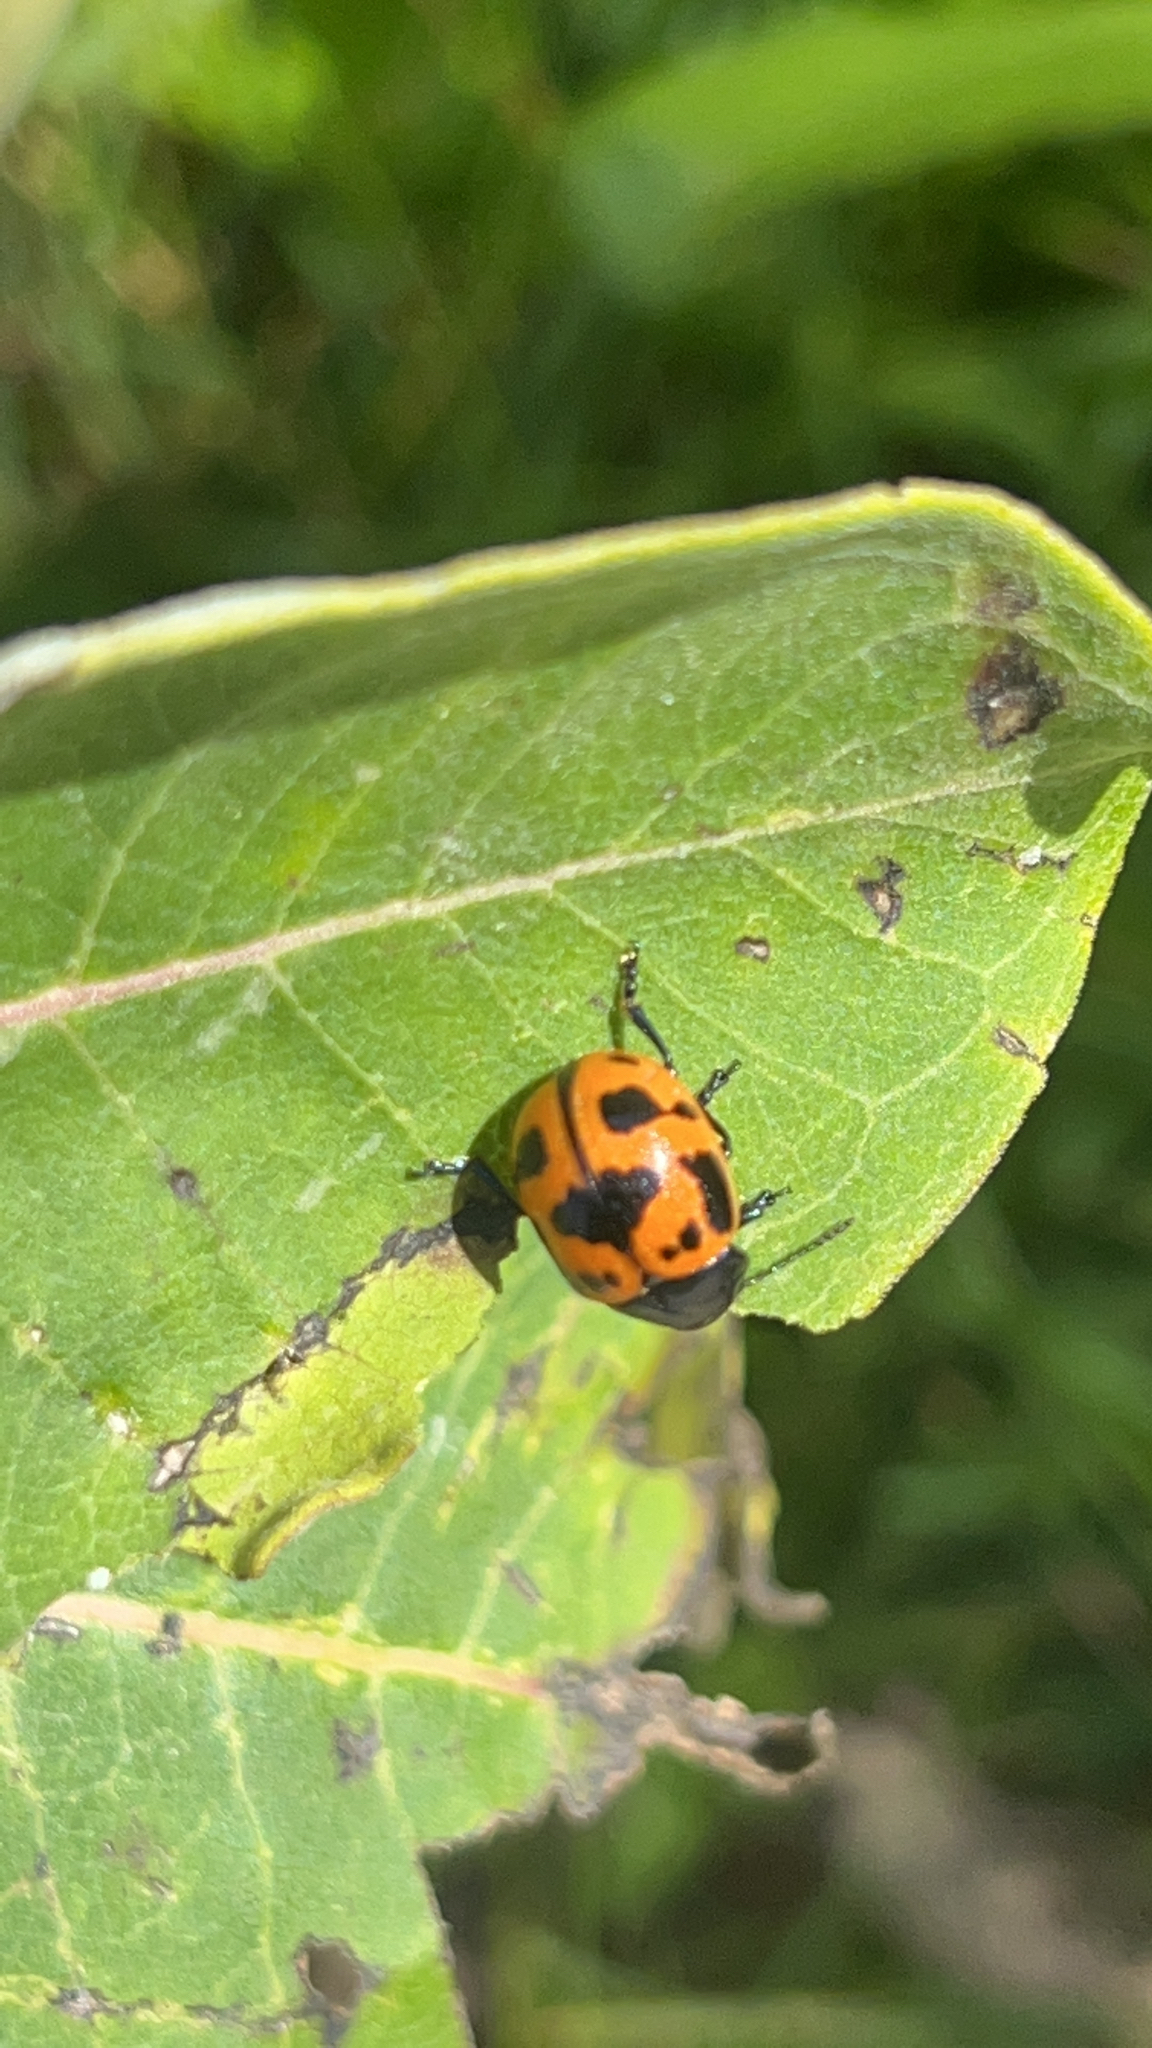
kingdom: Animalia
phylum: Arthropoda
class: Insecta
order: Coleoptera
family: Chrysomelidae
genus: Labidomera
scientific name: Labidomera clivicollis
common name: Swamp milkweed leaf beetle
